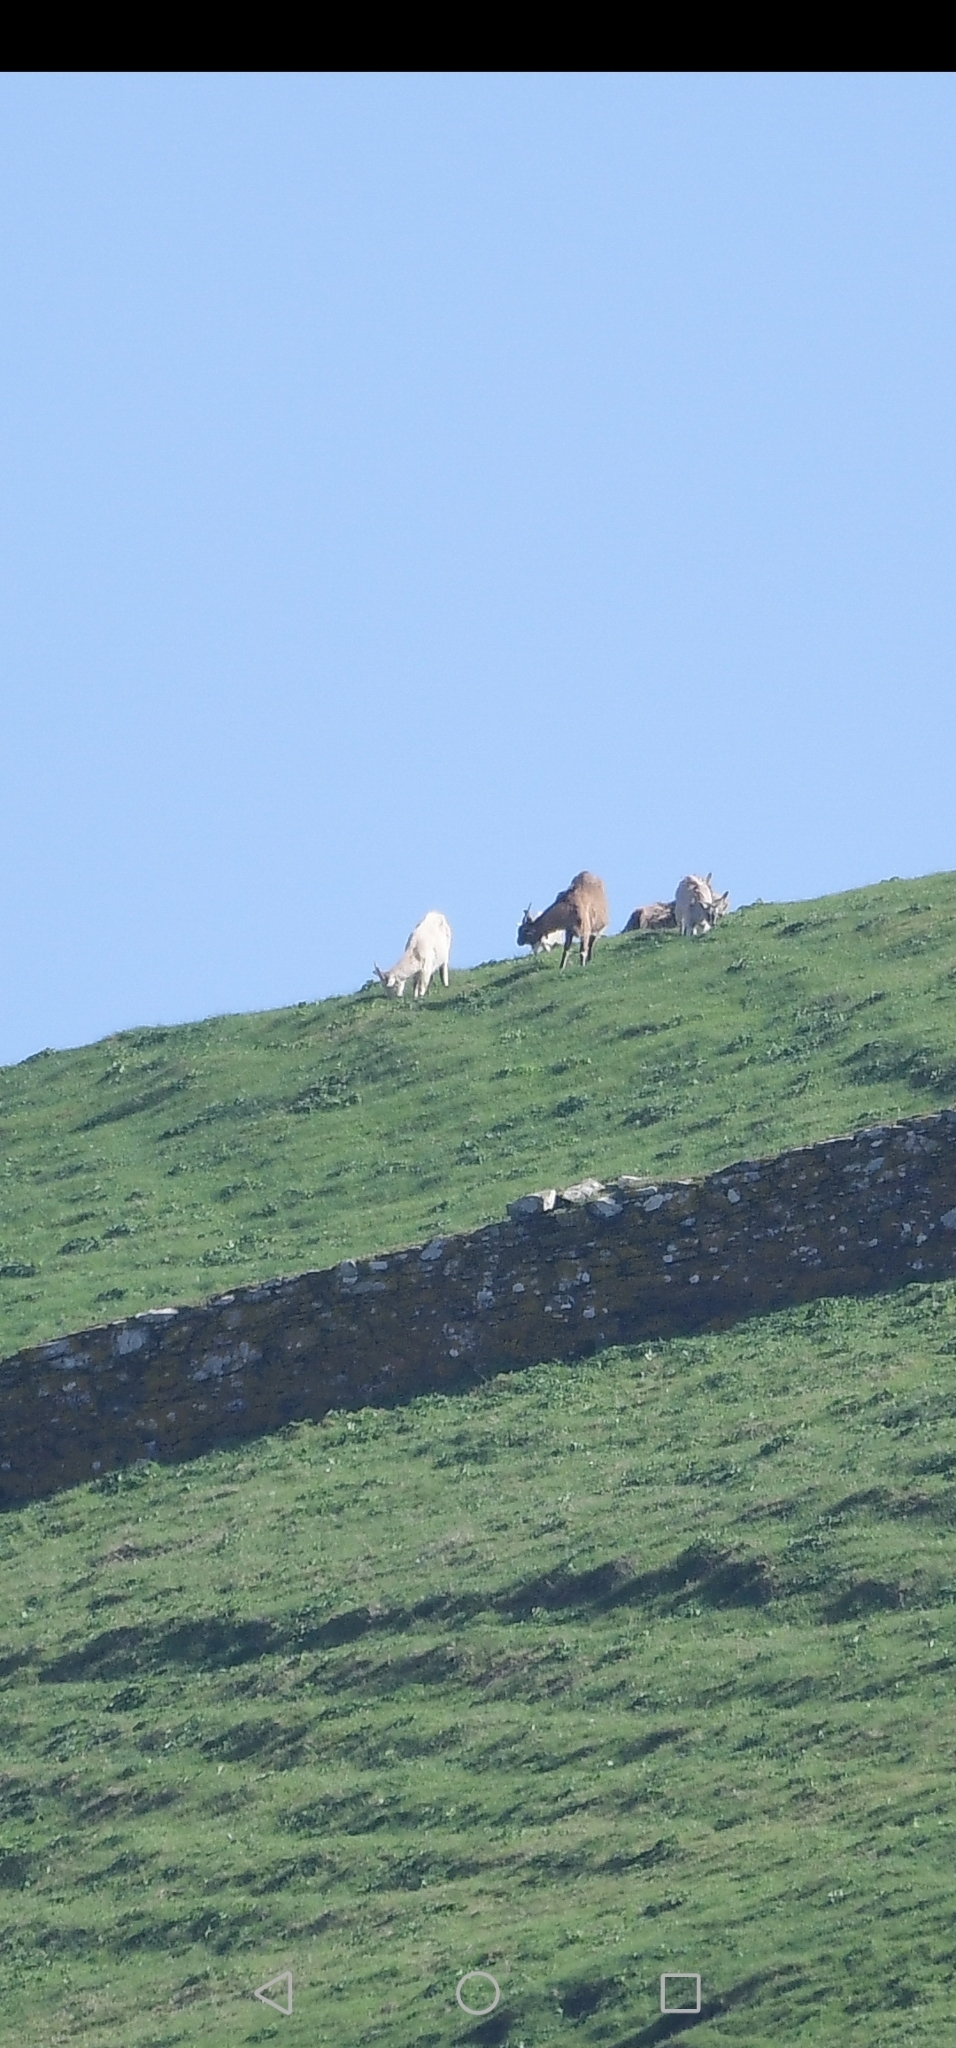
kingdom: Animalia
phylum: Chordata
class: Mammalia
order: Artiodactyla
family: Bovidae
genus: Capra
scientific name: Capra hircus
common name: Domestic goat
